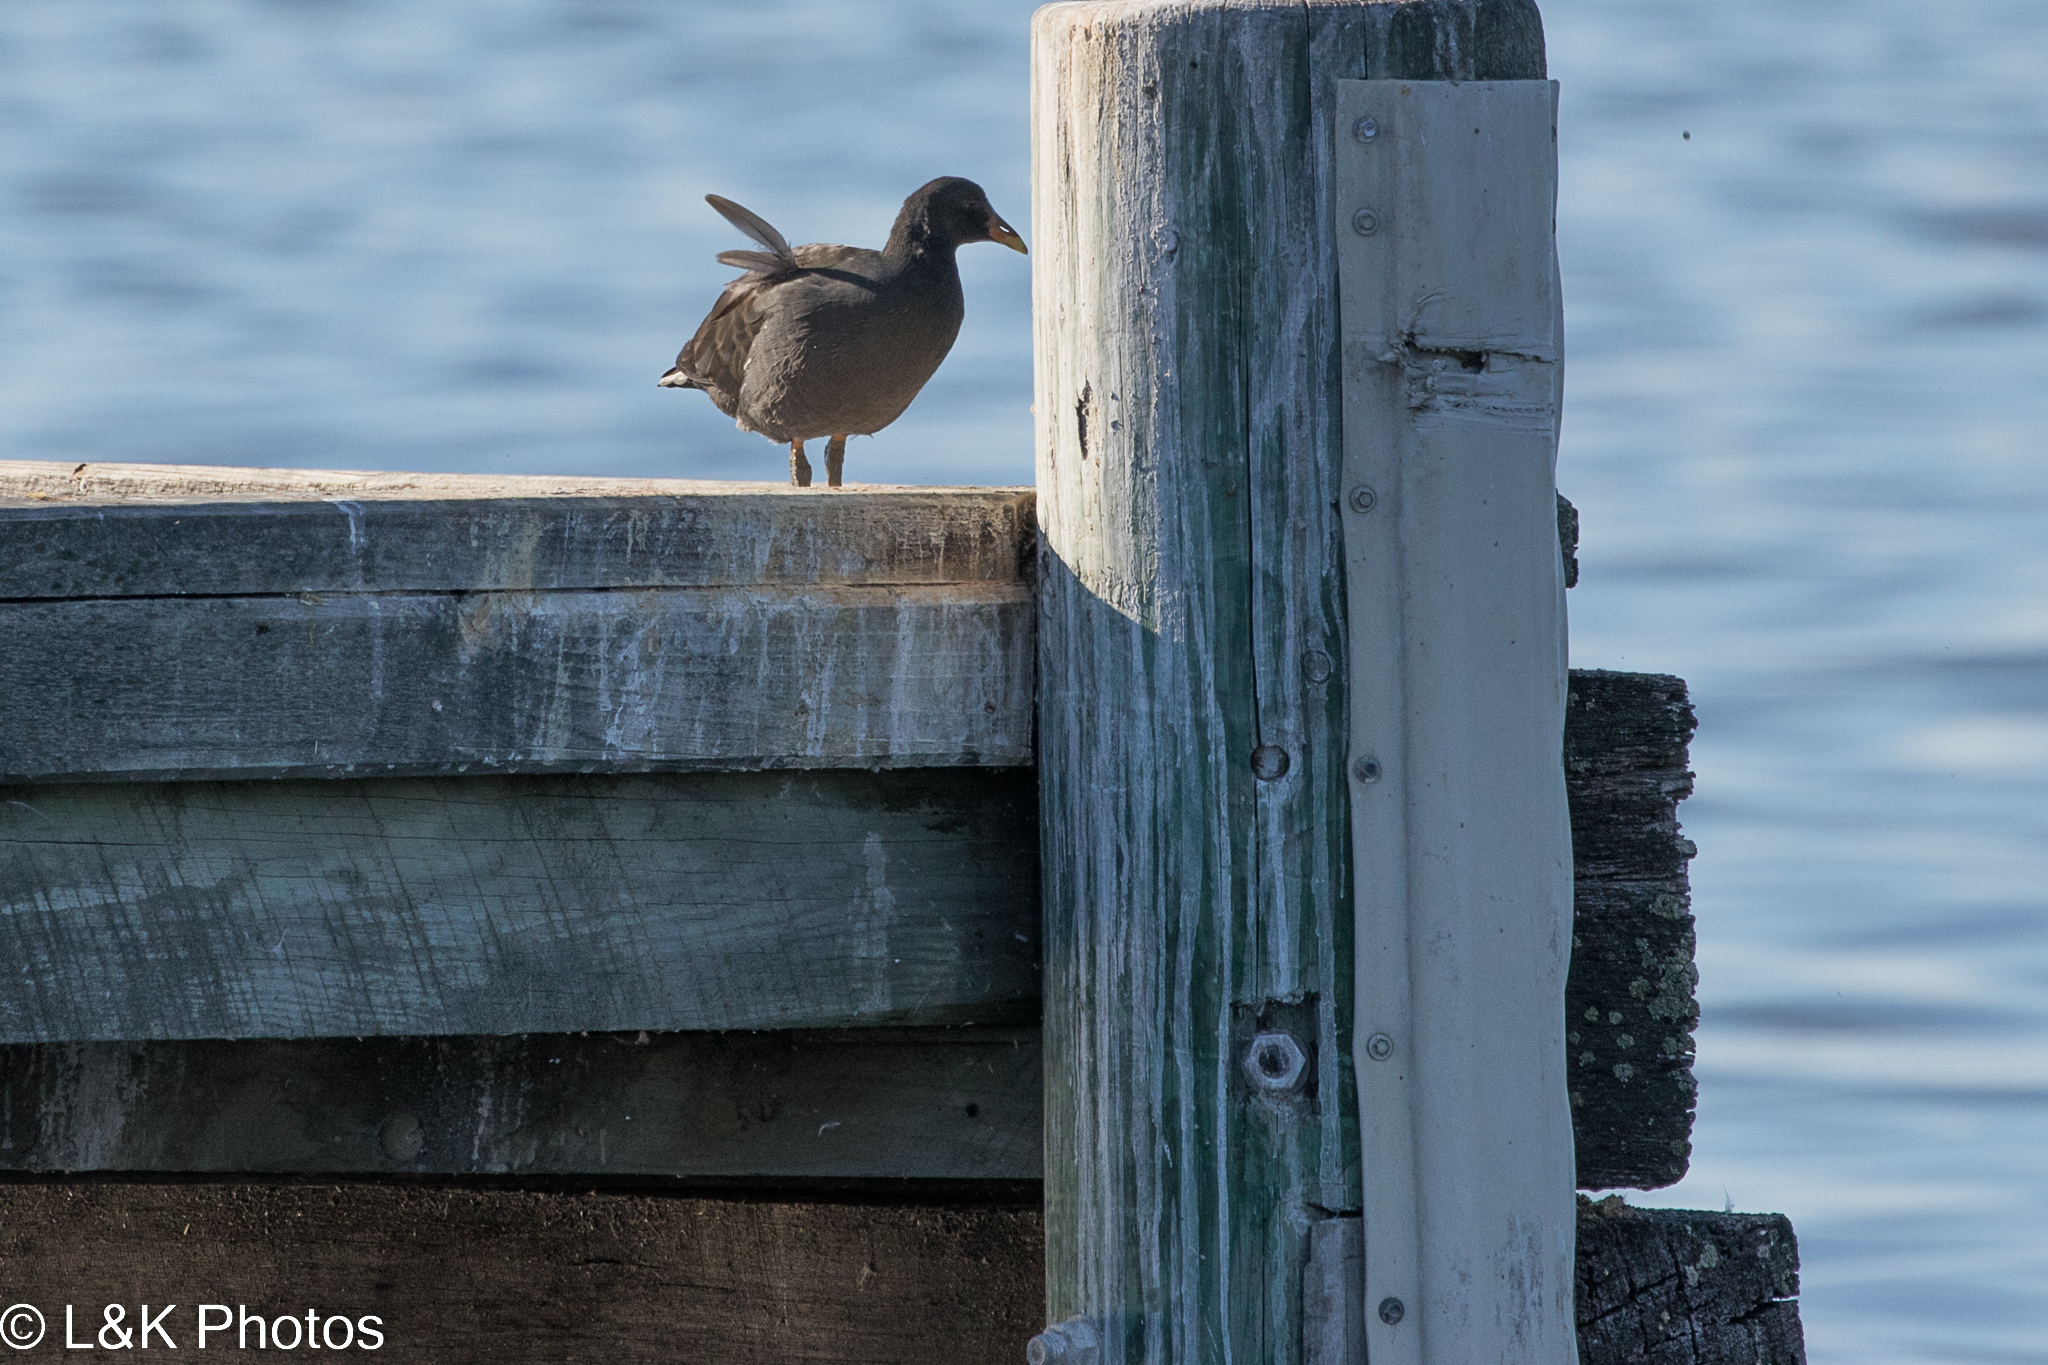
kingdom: Animalia
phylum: Chordata
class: Aves
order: Gruiformes
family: Rallidae
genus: Gallinula
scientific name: Gallinula tenebrosa
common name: Dusky moorhen
